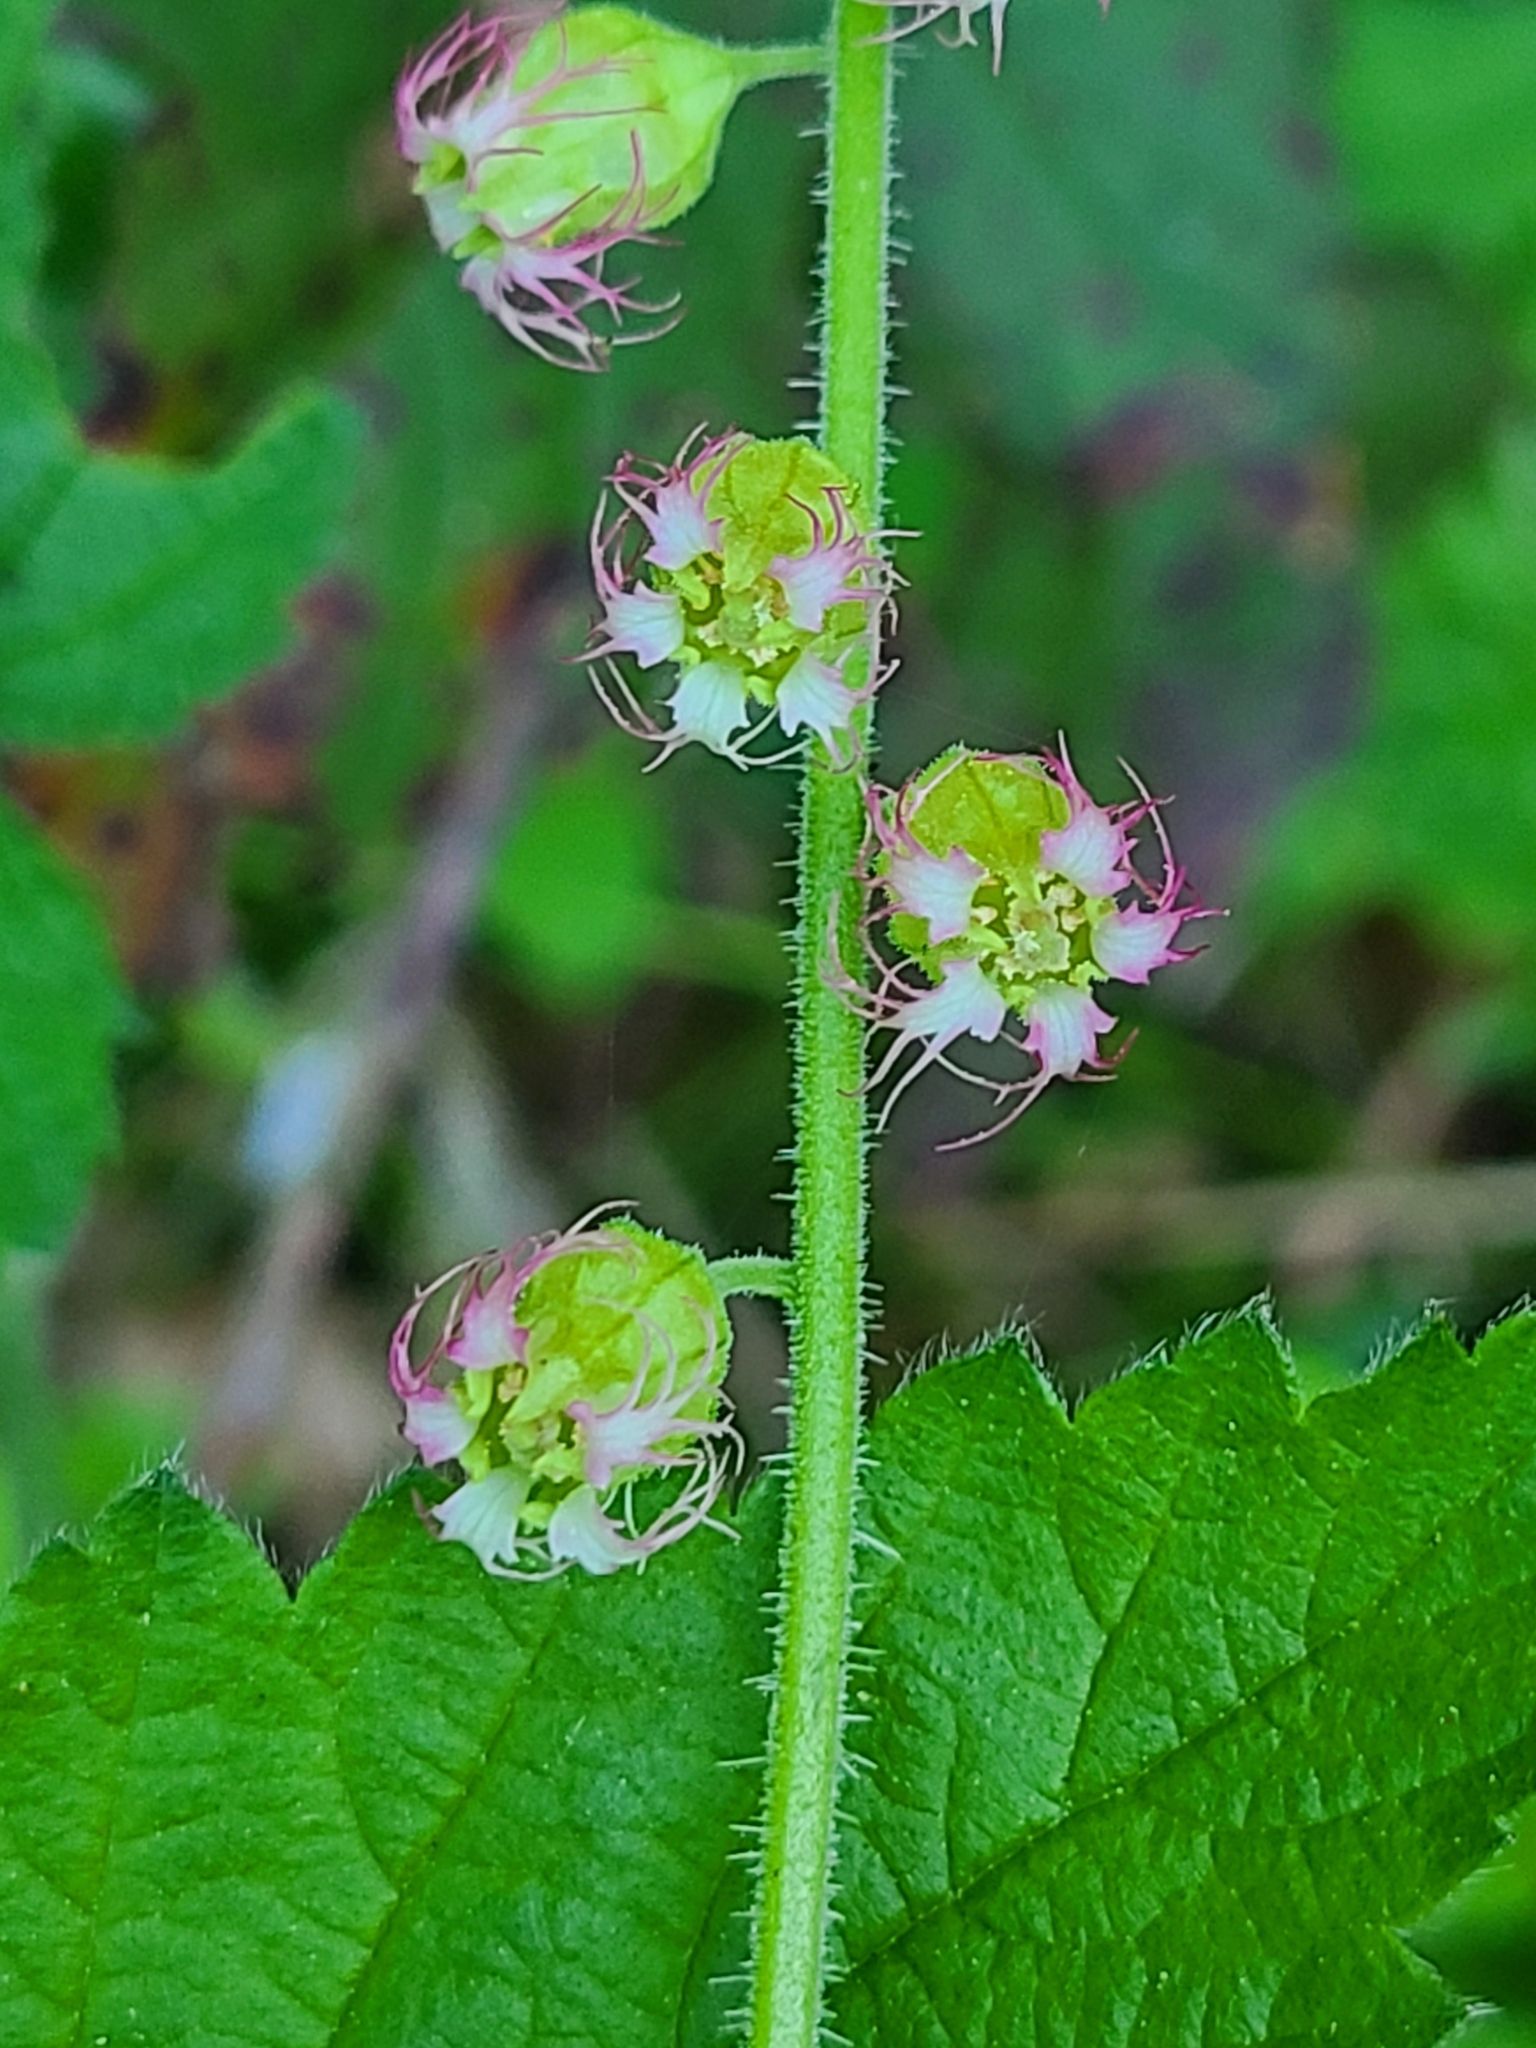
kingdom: Plantae
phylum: Tracheophyta
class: Magnoliopsida
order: Saxifragales
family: Saxifragaceae
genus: Tellima
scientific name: Tellima grandiflora
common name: Fringecups
